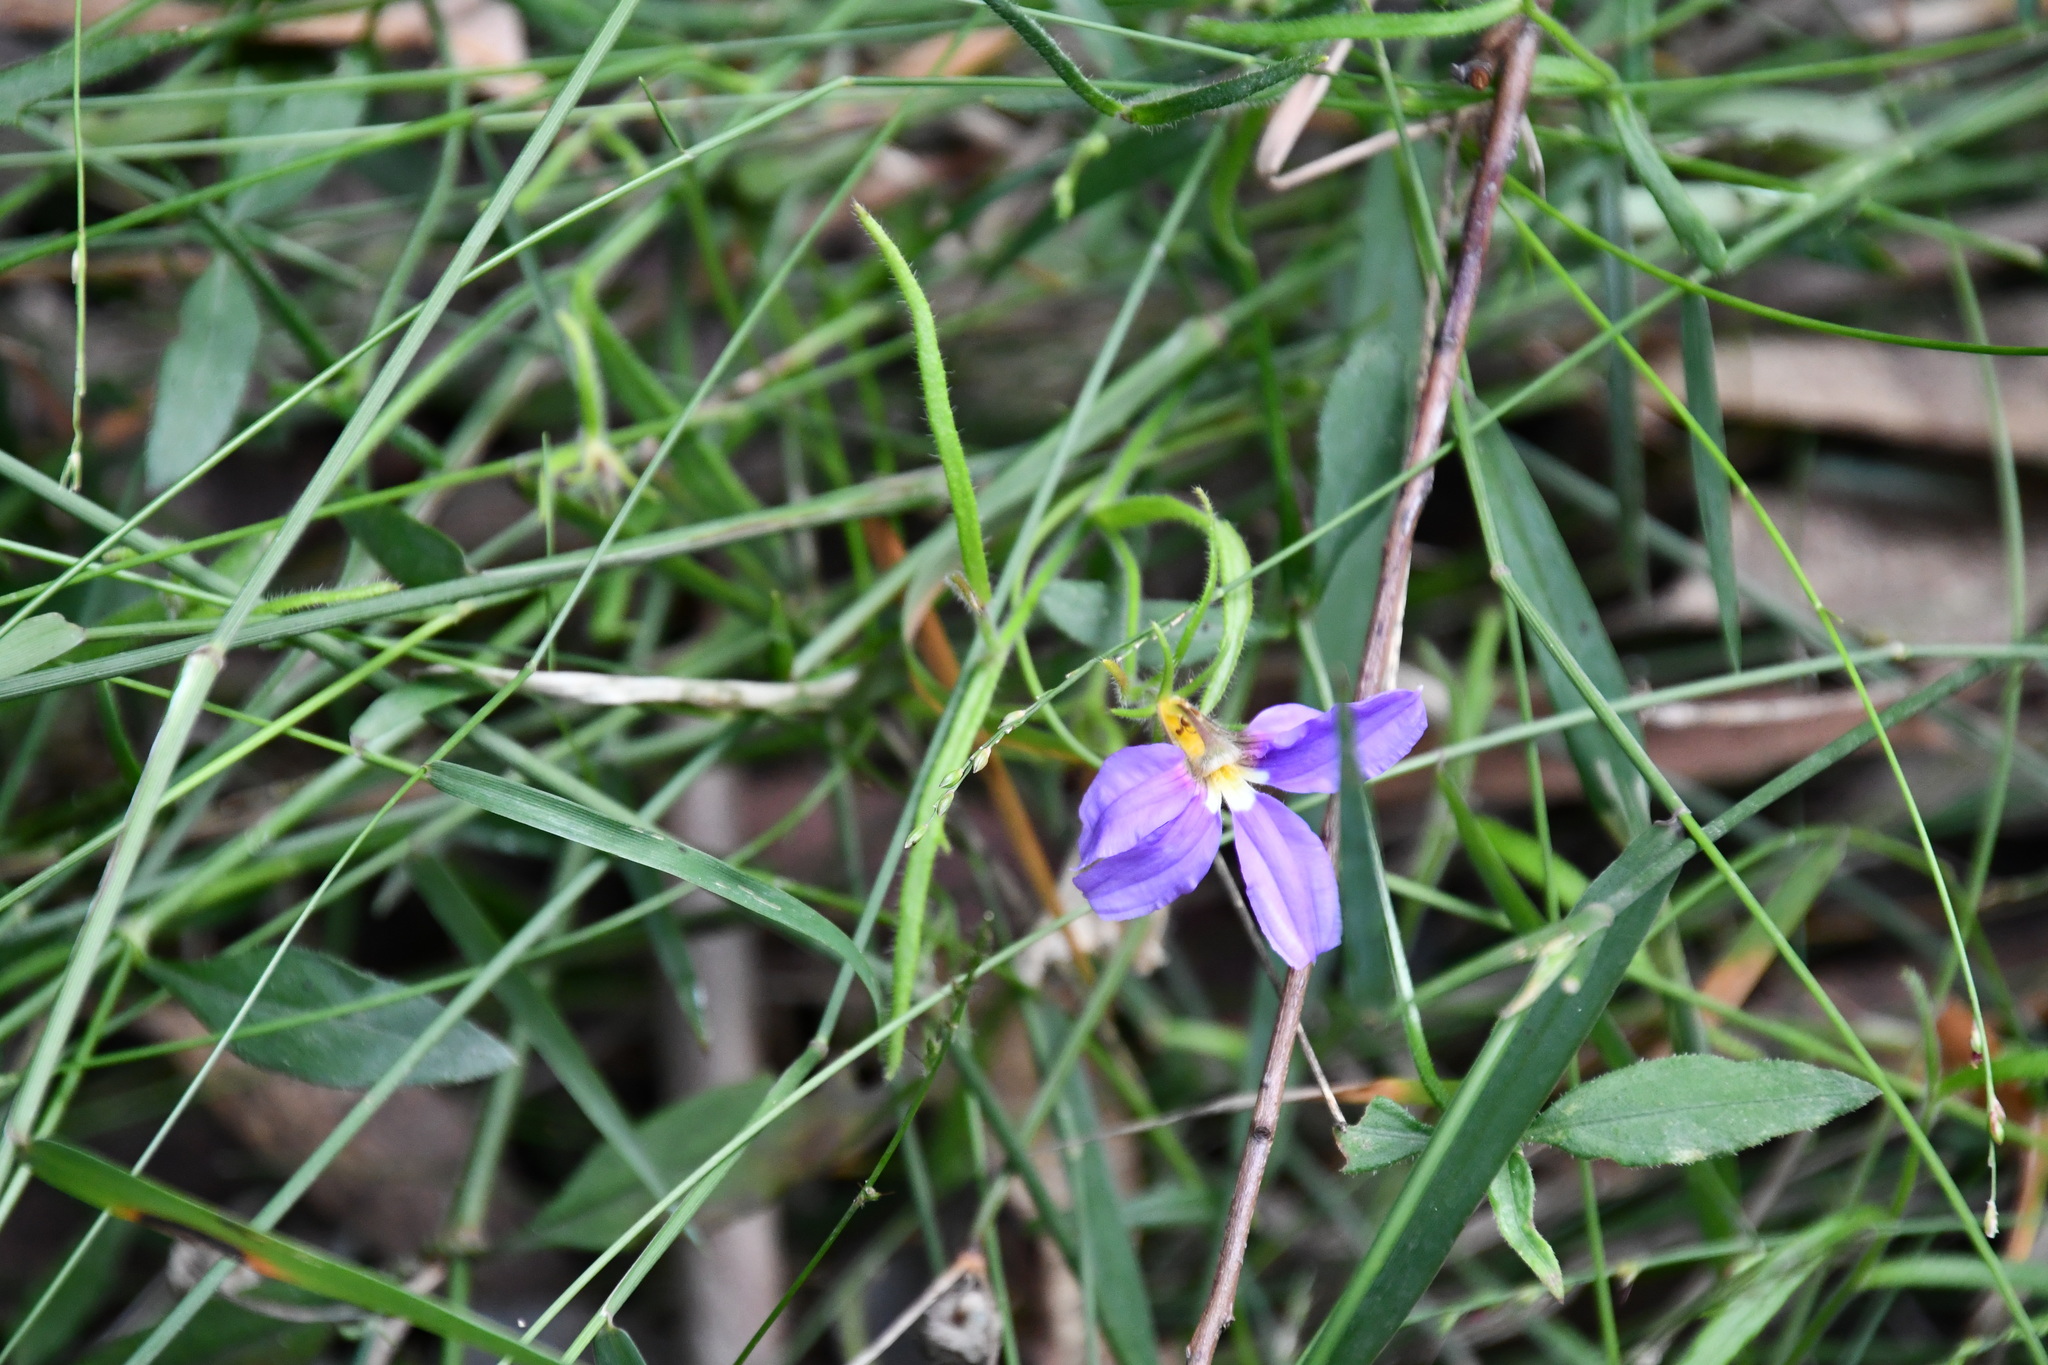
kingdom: Plantae
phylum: Tracheophyta
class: Magnoliopsida
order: Asterales
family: Goodeniaceae
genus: Scaevola
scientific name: Scaevola ramosissima
